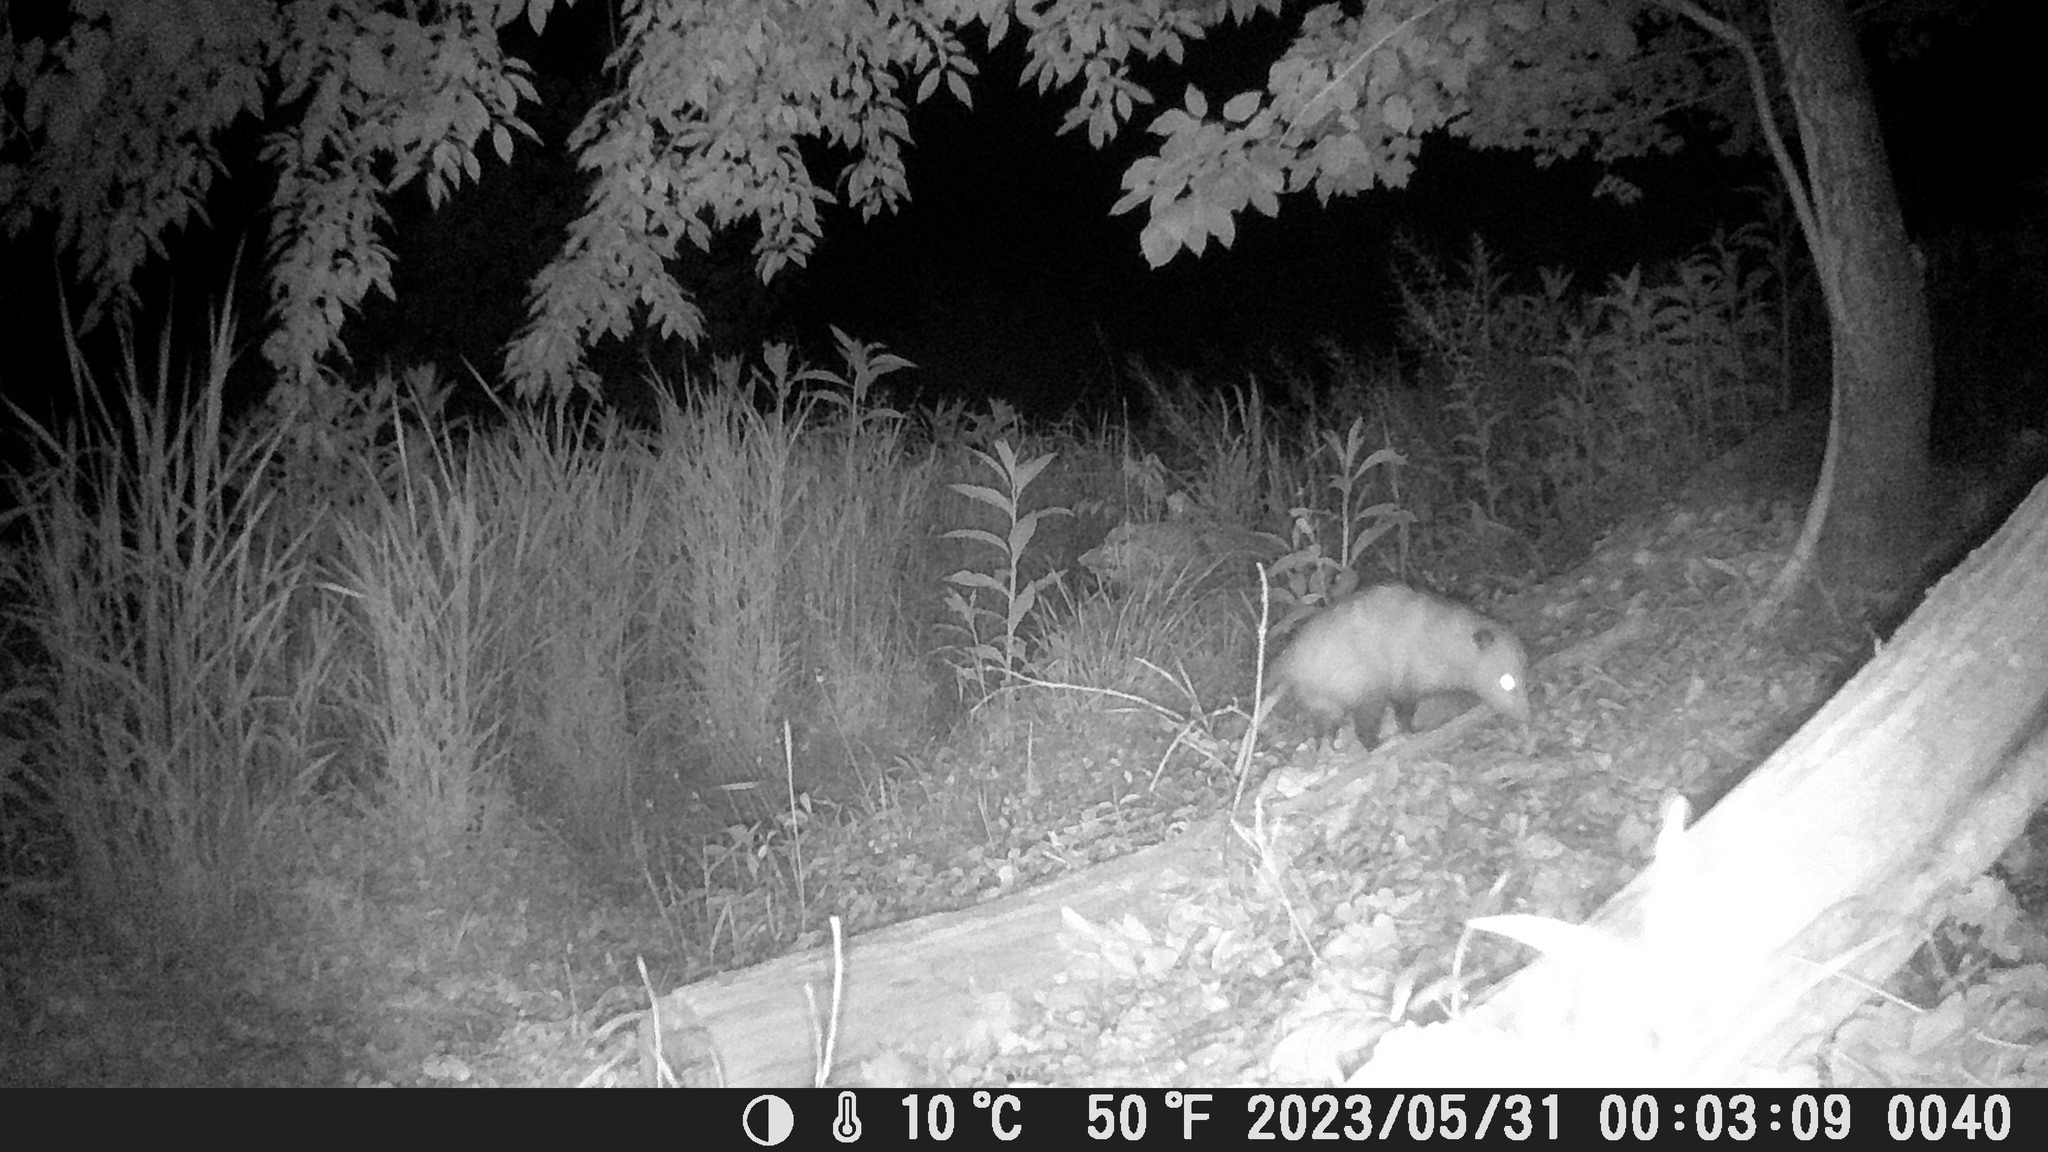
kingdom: Animalia
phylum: Chordata
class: Mammalia
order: Didelphimorphia
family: Didelphidae
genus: Didelphis
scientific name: Didelphis virginiana
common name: Virginia opossum
